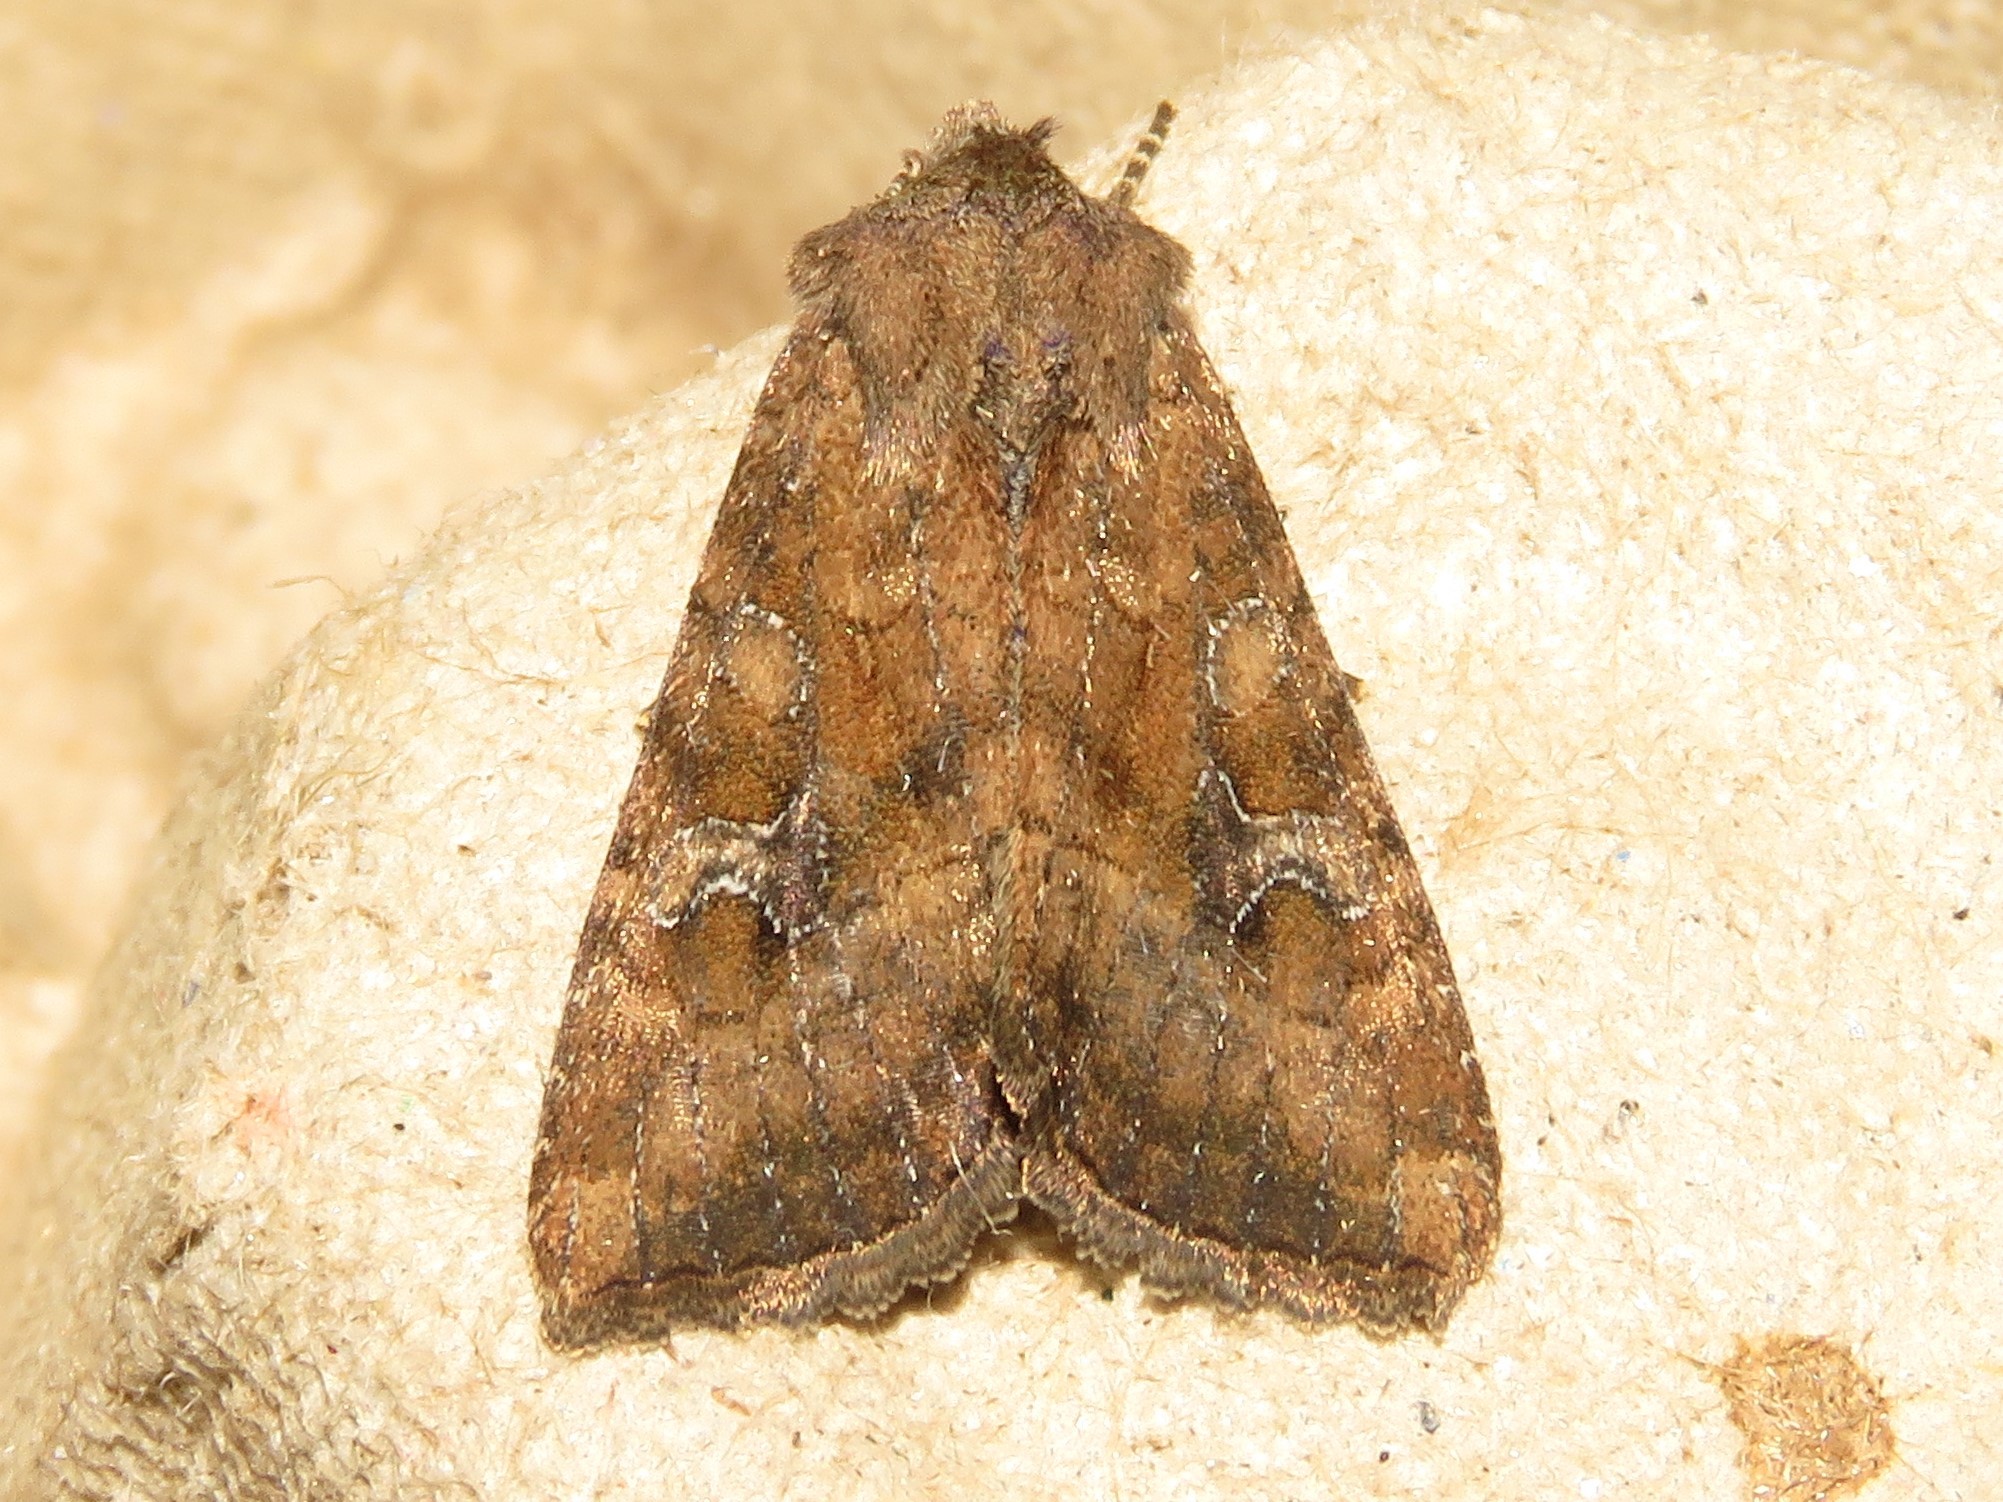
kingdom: Animalia
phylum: Arthropoda
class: Insecta
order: Lepidoptera
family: Noctuidae
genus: Loscopia
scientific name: Loscopia velata
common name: Veiled ear moth
